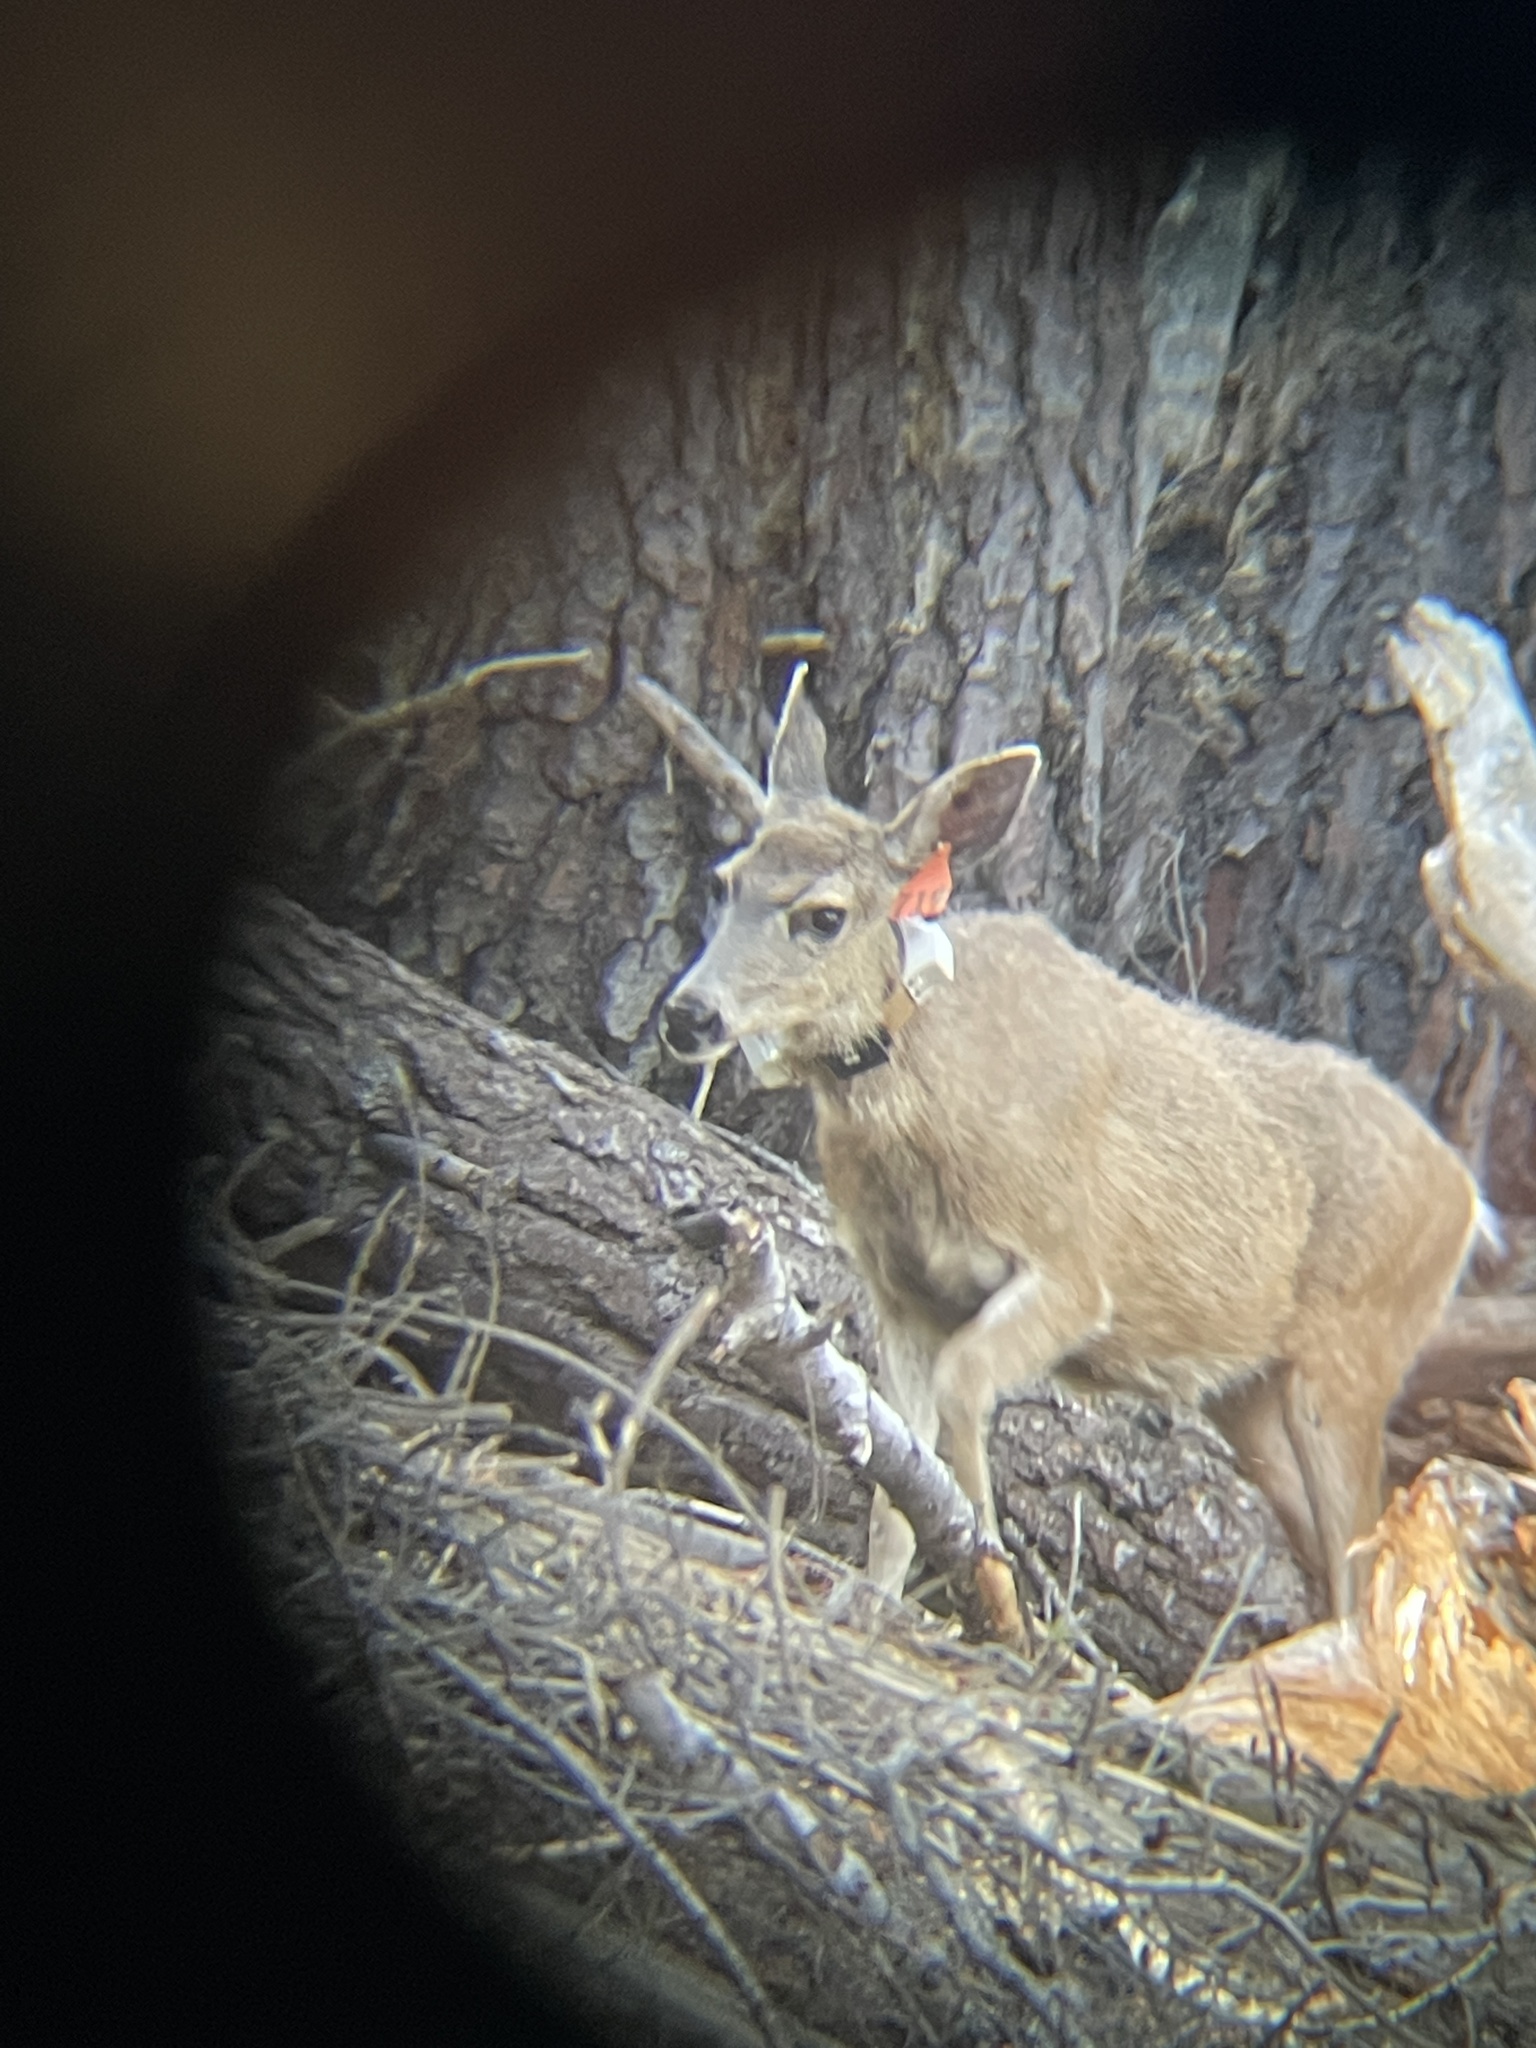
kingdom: Animalia
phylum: Chordata
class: Mammalia
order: Artiodactyla
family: Cervidae
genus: Odocoileus
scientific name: Odocoileus hemionus
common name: Mule deer
